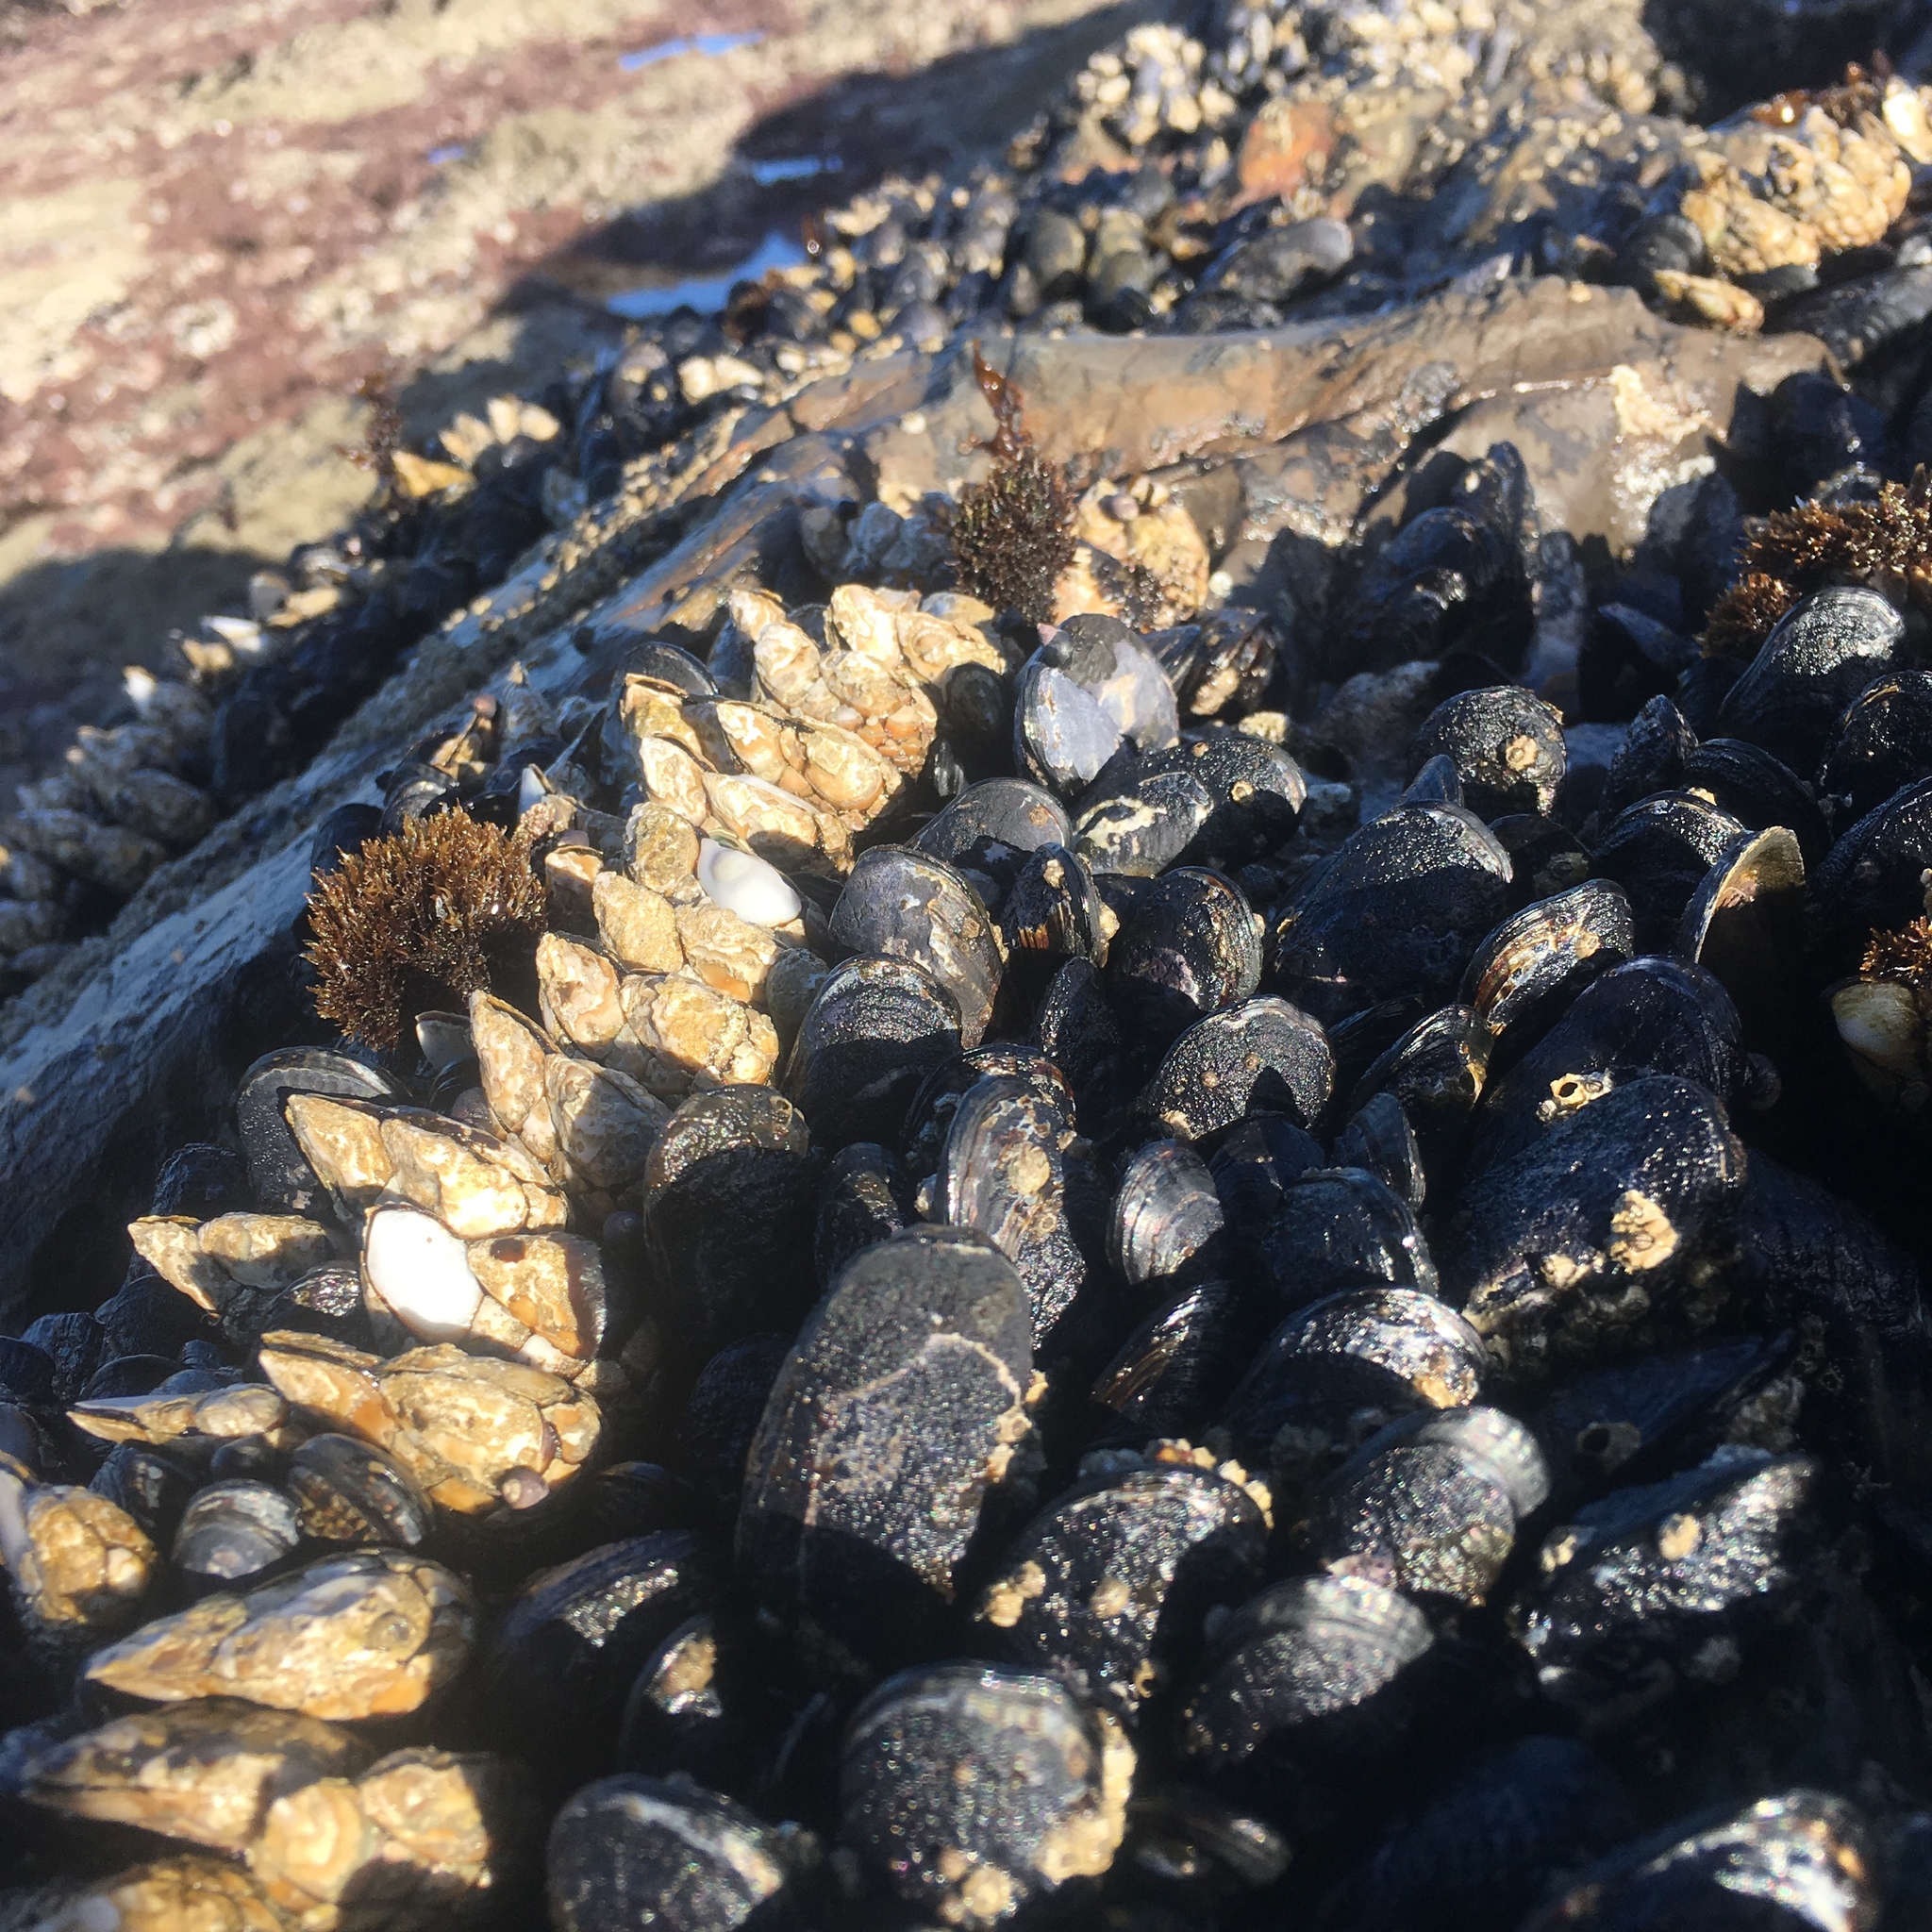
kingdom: Animalia
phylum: Arthropoda
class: Maxillopoda
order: Pedunculata
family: Pollicipedidae
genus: Pollicipes
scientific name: Pollicipes polymerus
